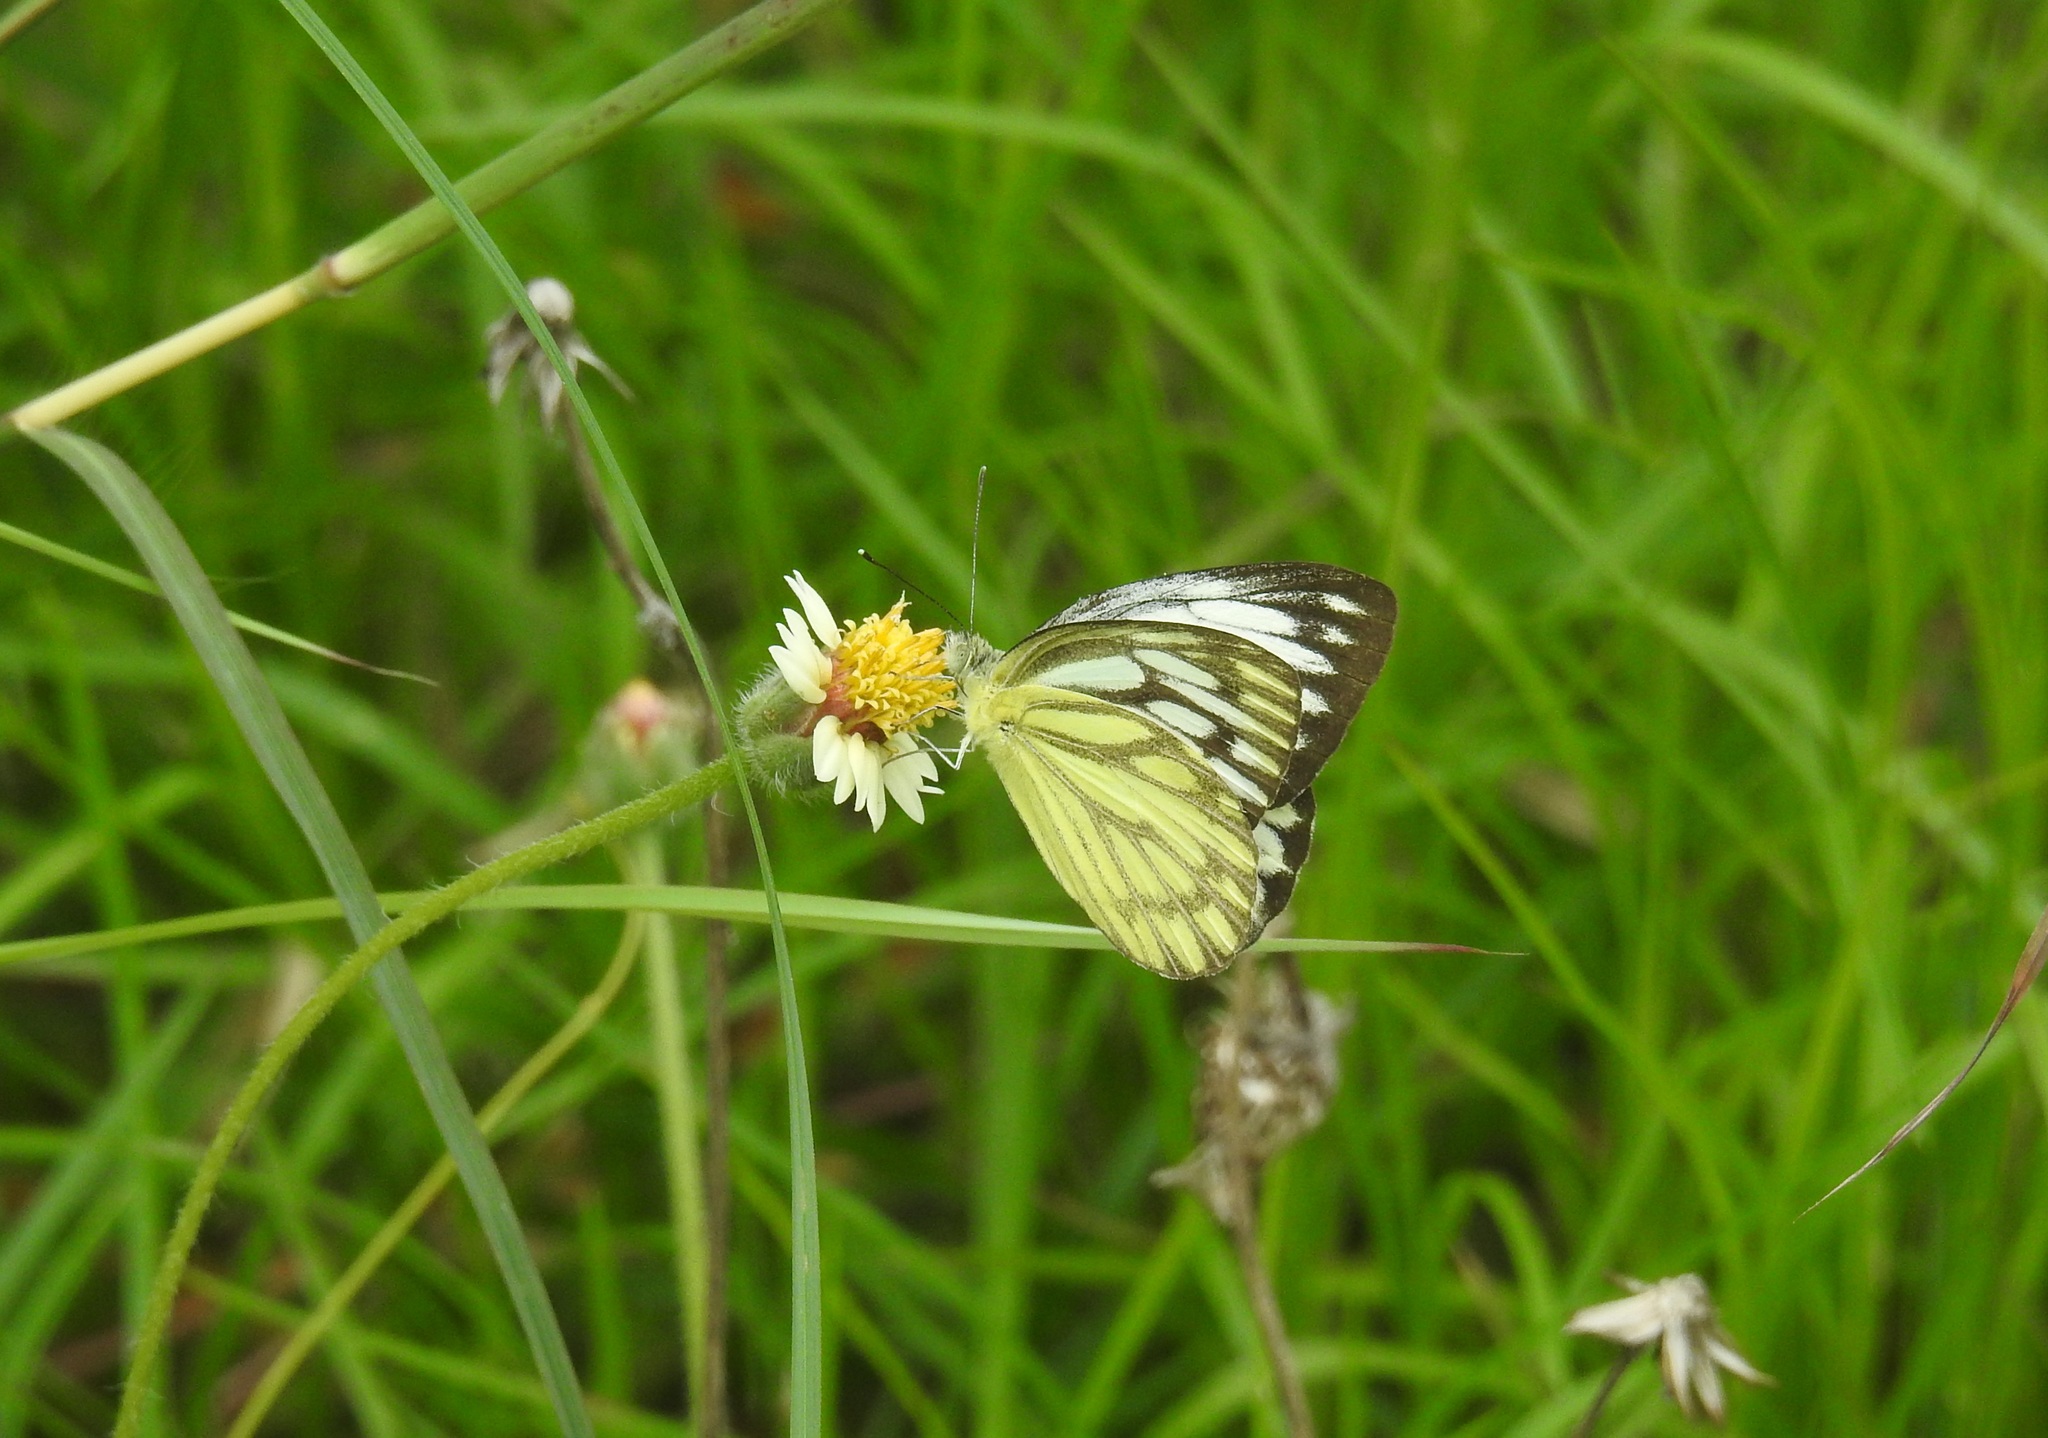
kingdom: Animalia
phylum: Arthropoda
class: Insecta
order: Lepidoptera
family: Pieridae
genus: Cepora
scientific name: Cepora nerissa
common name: Common gull
